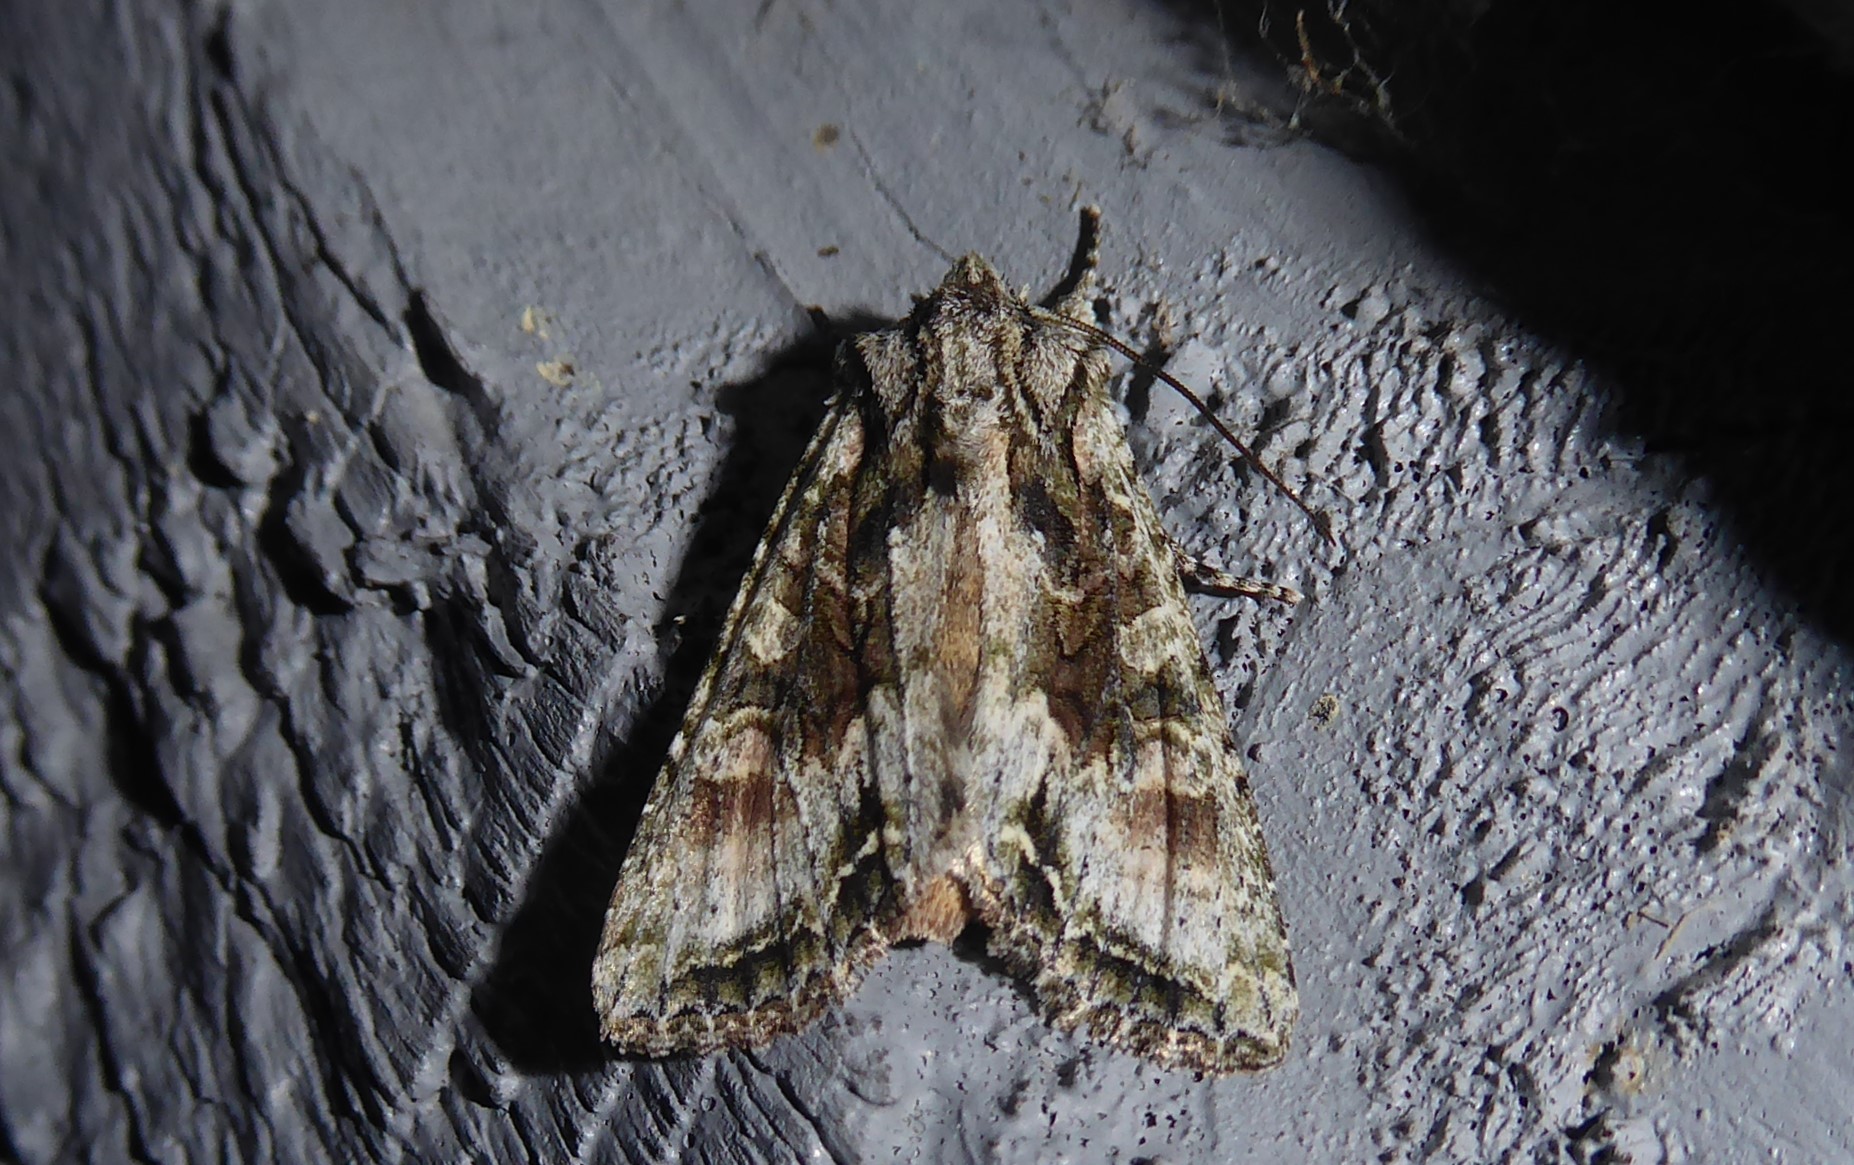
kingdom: Animalia
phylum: Arthropoda
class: Insecta
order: Lepidoptera
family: Noctuidae
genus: Ichneutica
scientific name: Ichneutica mutans
